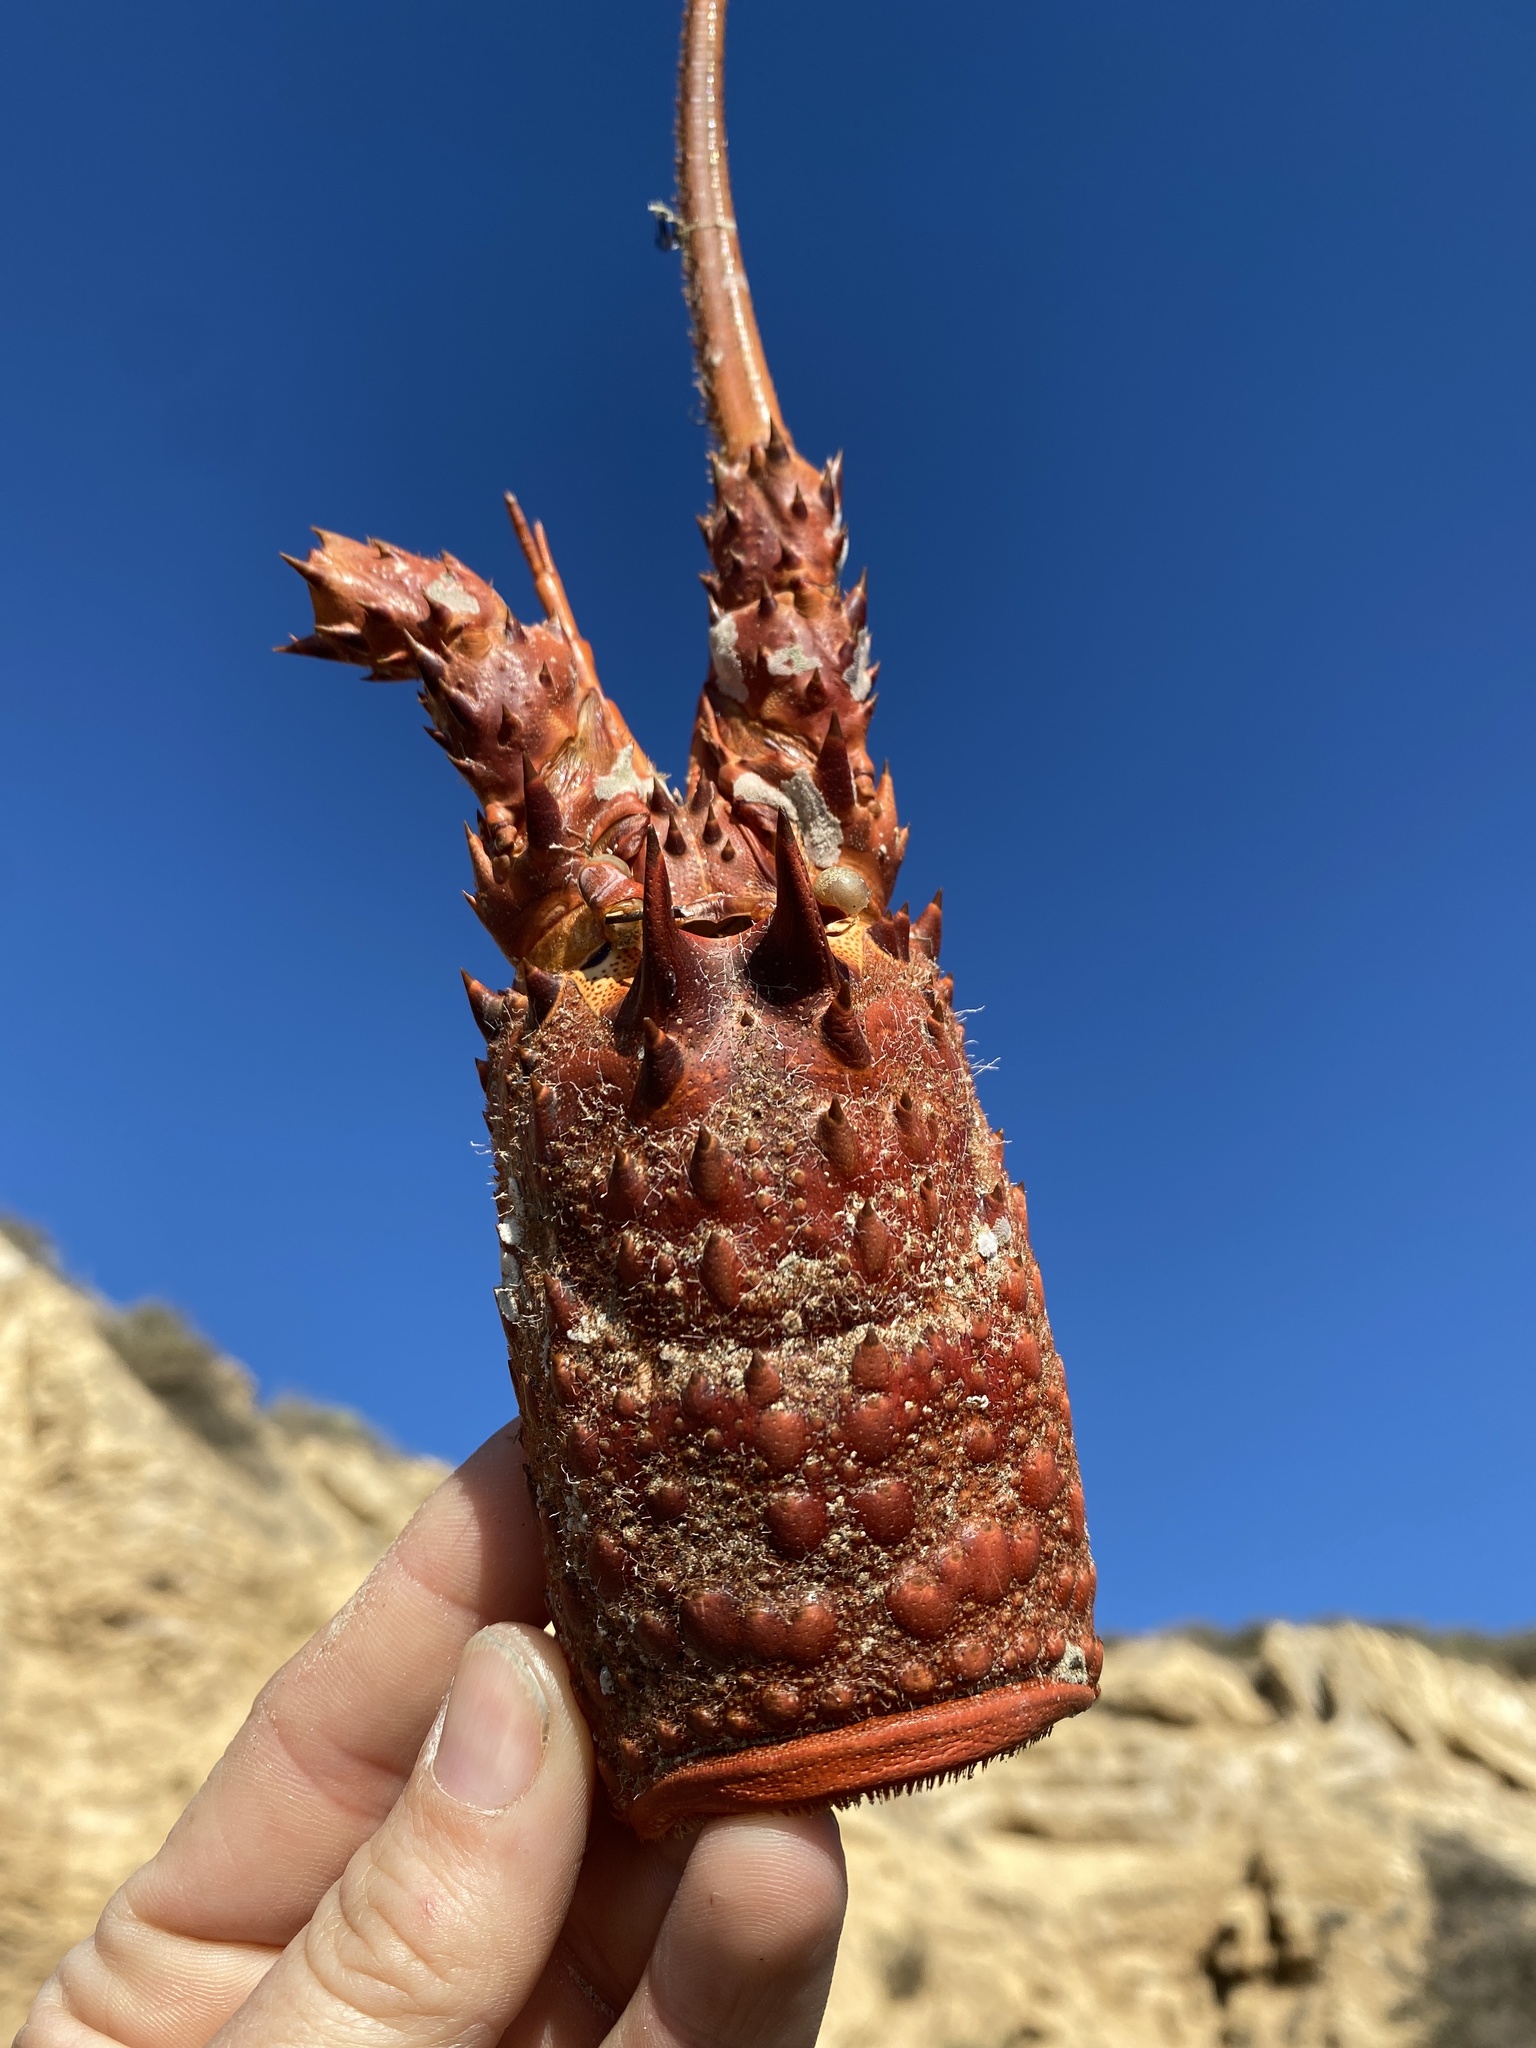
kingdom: Animalia
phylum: Arthropoda
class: Malacostraca
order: Decapoda
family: Palinuridae
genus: Panulirus
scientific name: Panulirus interruptus
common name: California spiny lobster
